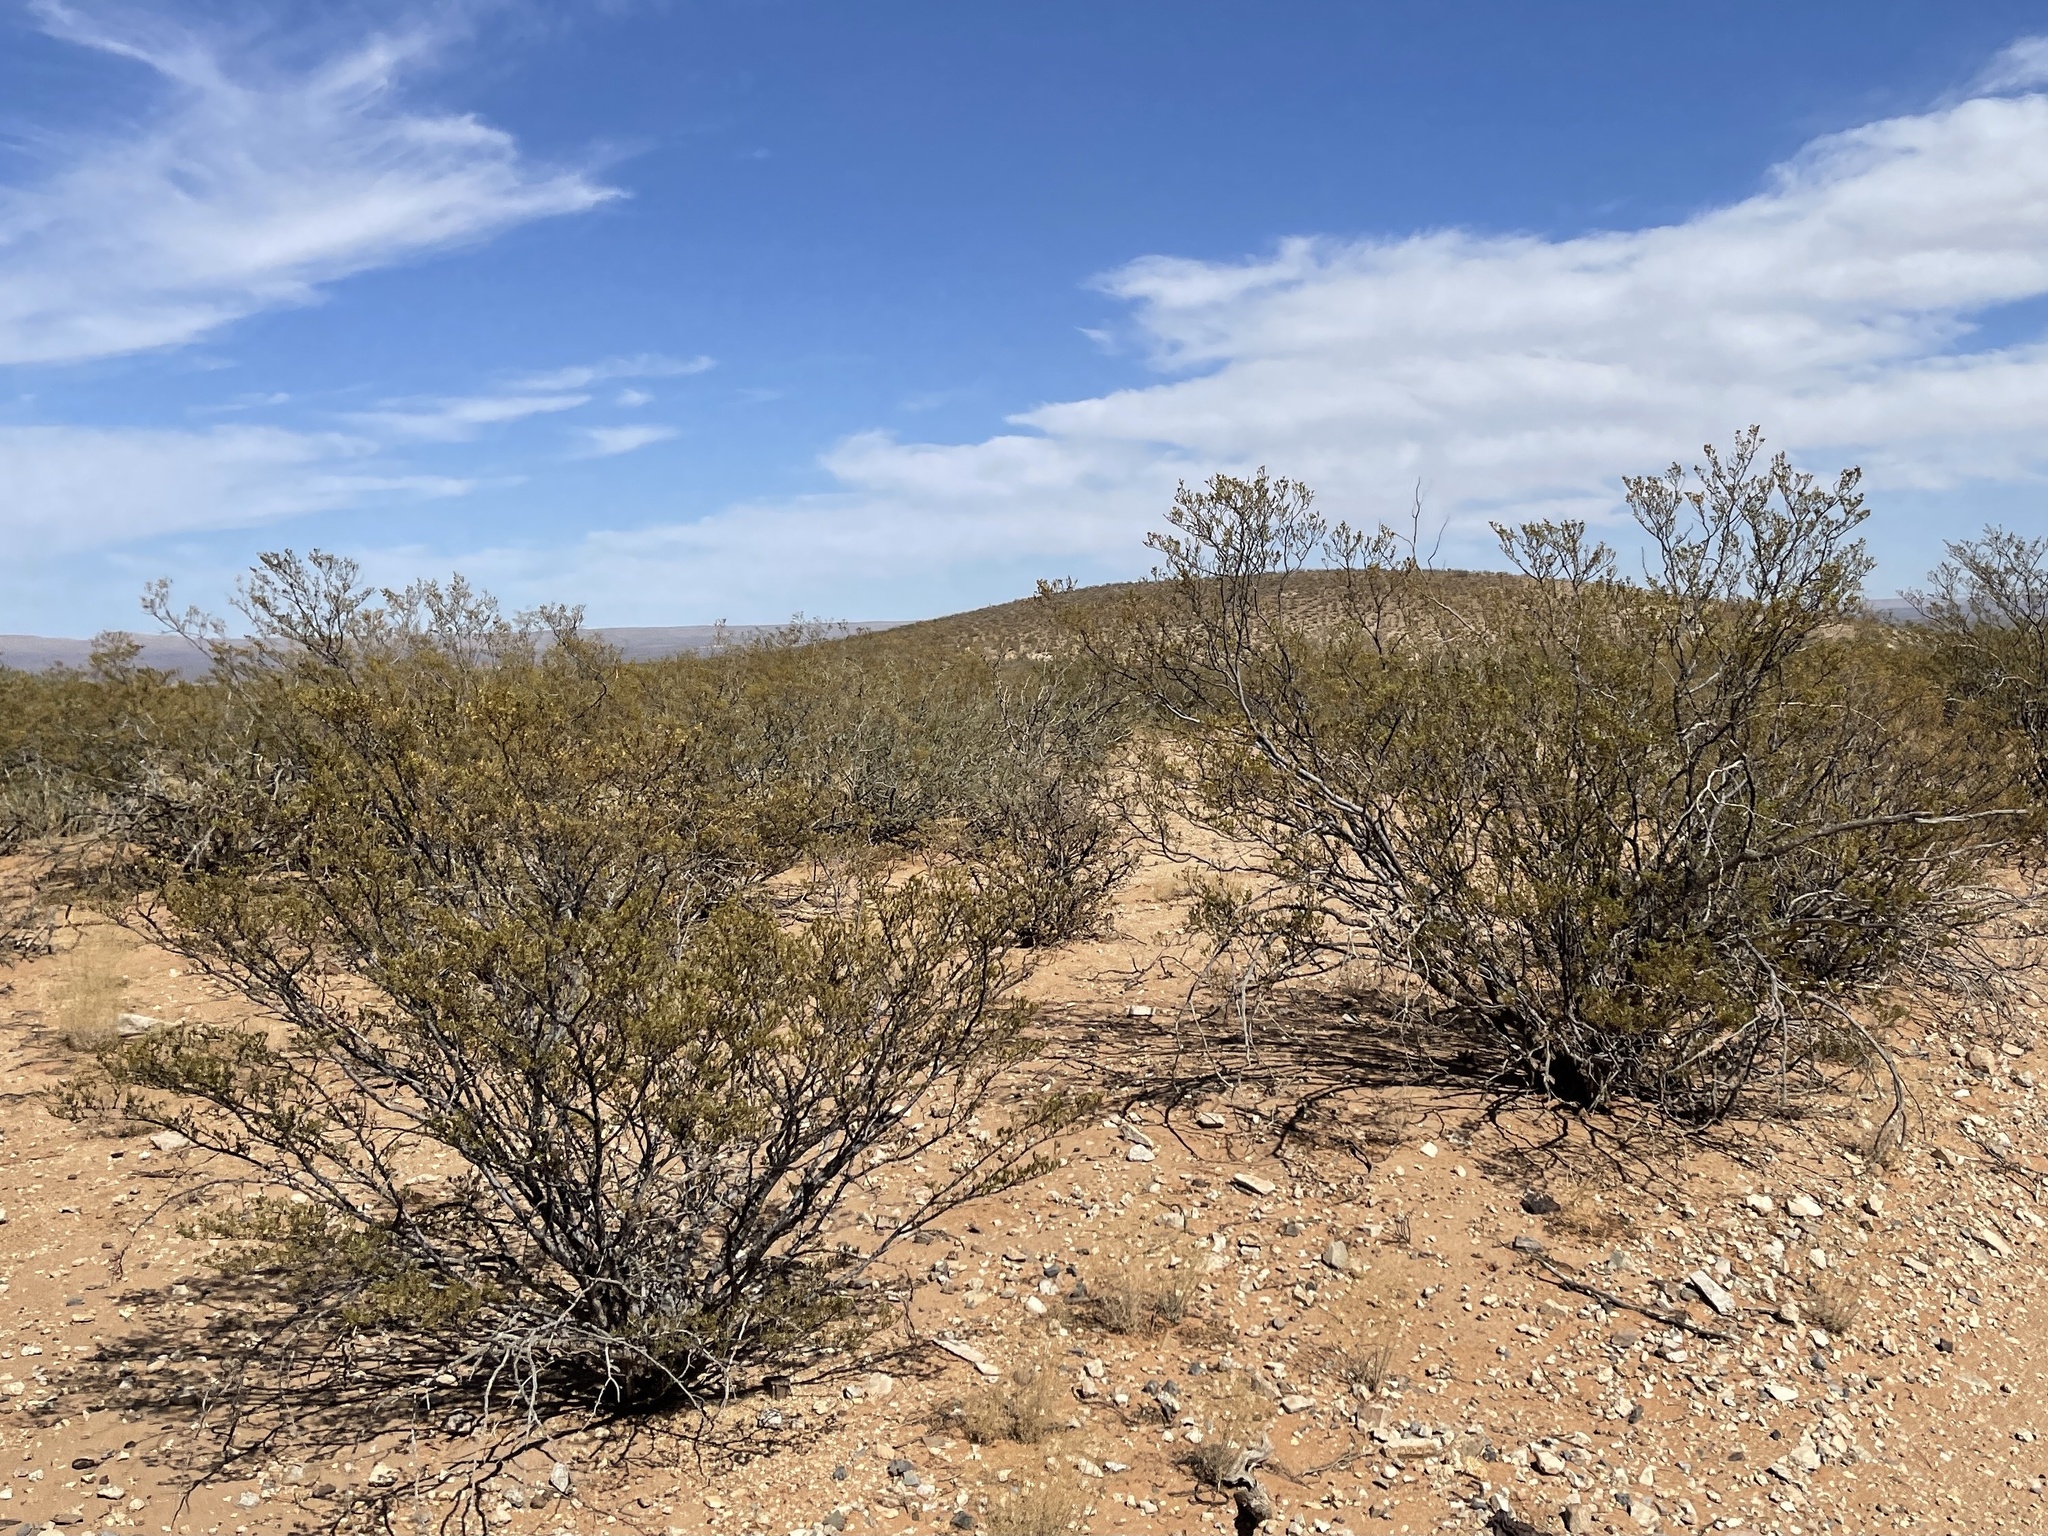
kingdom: Plantae
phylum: Tracheophyta
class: Magnoliopsida
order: Zygophyllales
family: Zygophyllaceae
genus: Larrea
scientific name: Larrea tridentata
